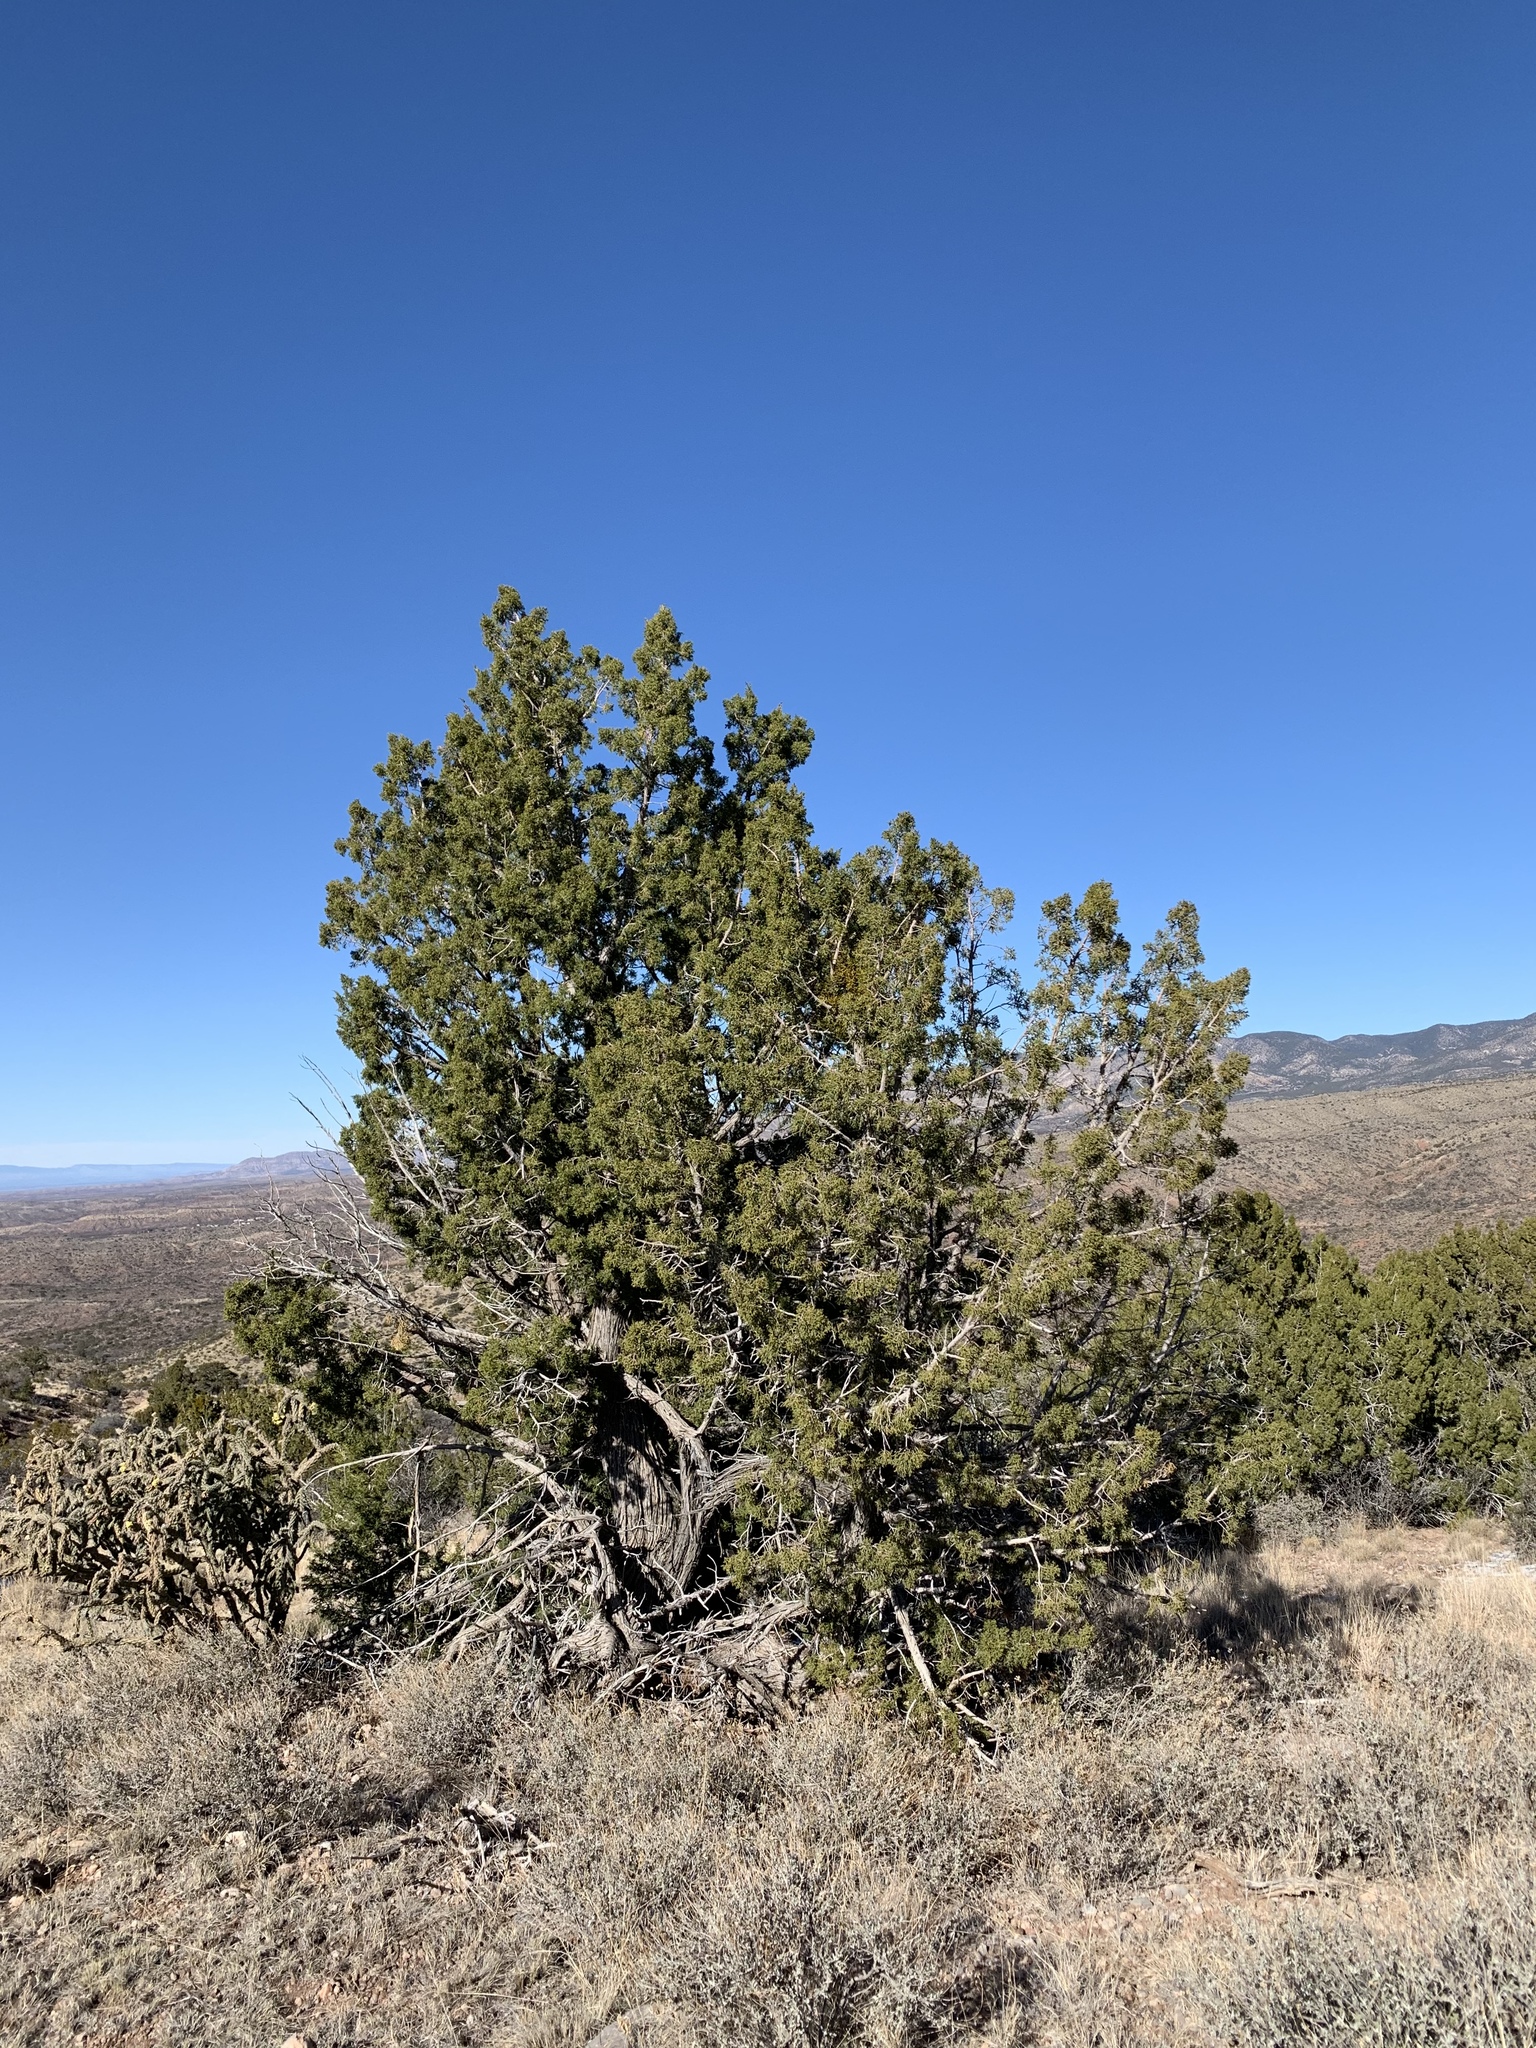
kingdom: Plantae
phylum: Tracheophyta
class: Pinopsida
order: Pinales
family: Cupressaceae
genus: Juniperus
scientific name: Juniperus monosperma
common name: One-seed juniper
